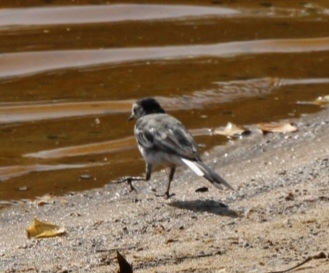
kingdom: Animalia
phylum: Chordata
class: Aves
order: Passeriformes
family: Motacillidae
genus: Motacilla
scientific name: Motacilla alba
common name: White wagtail
